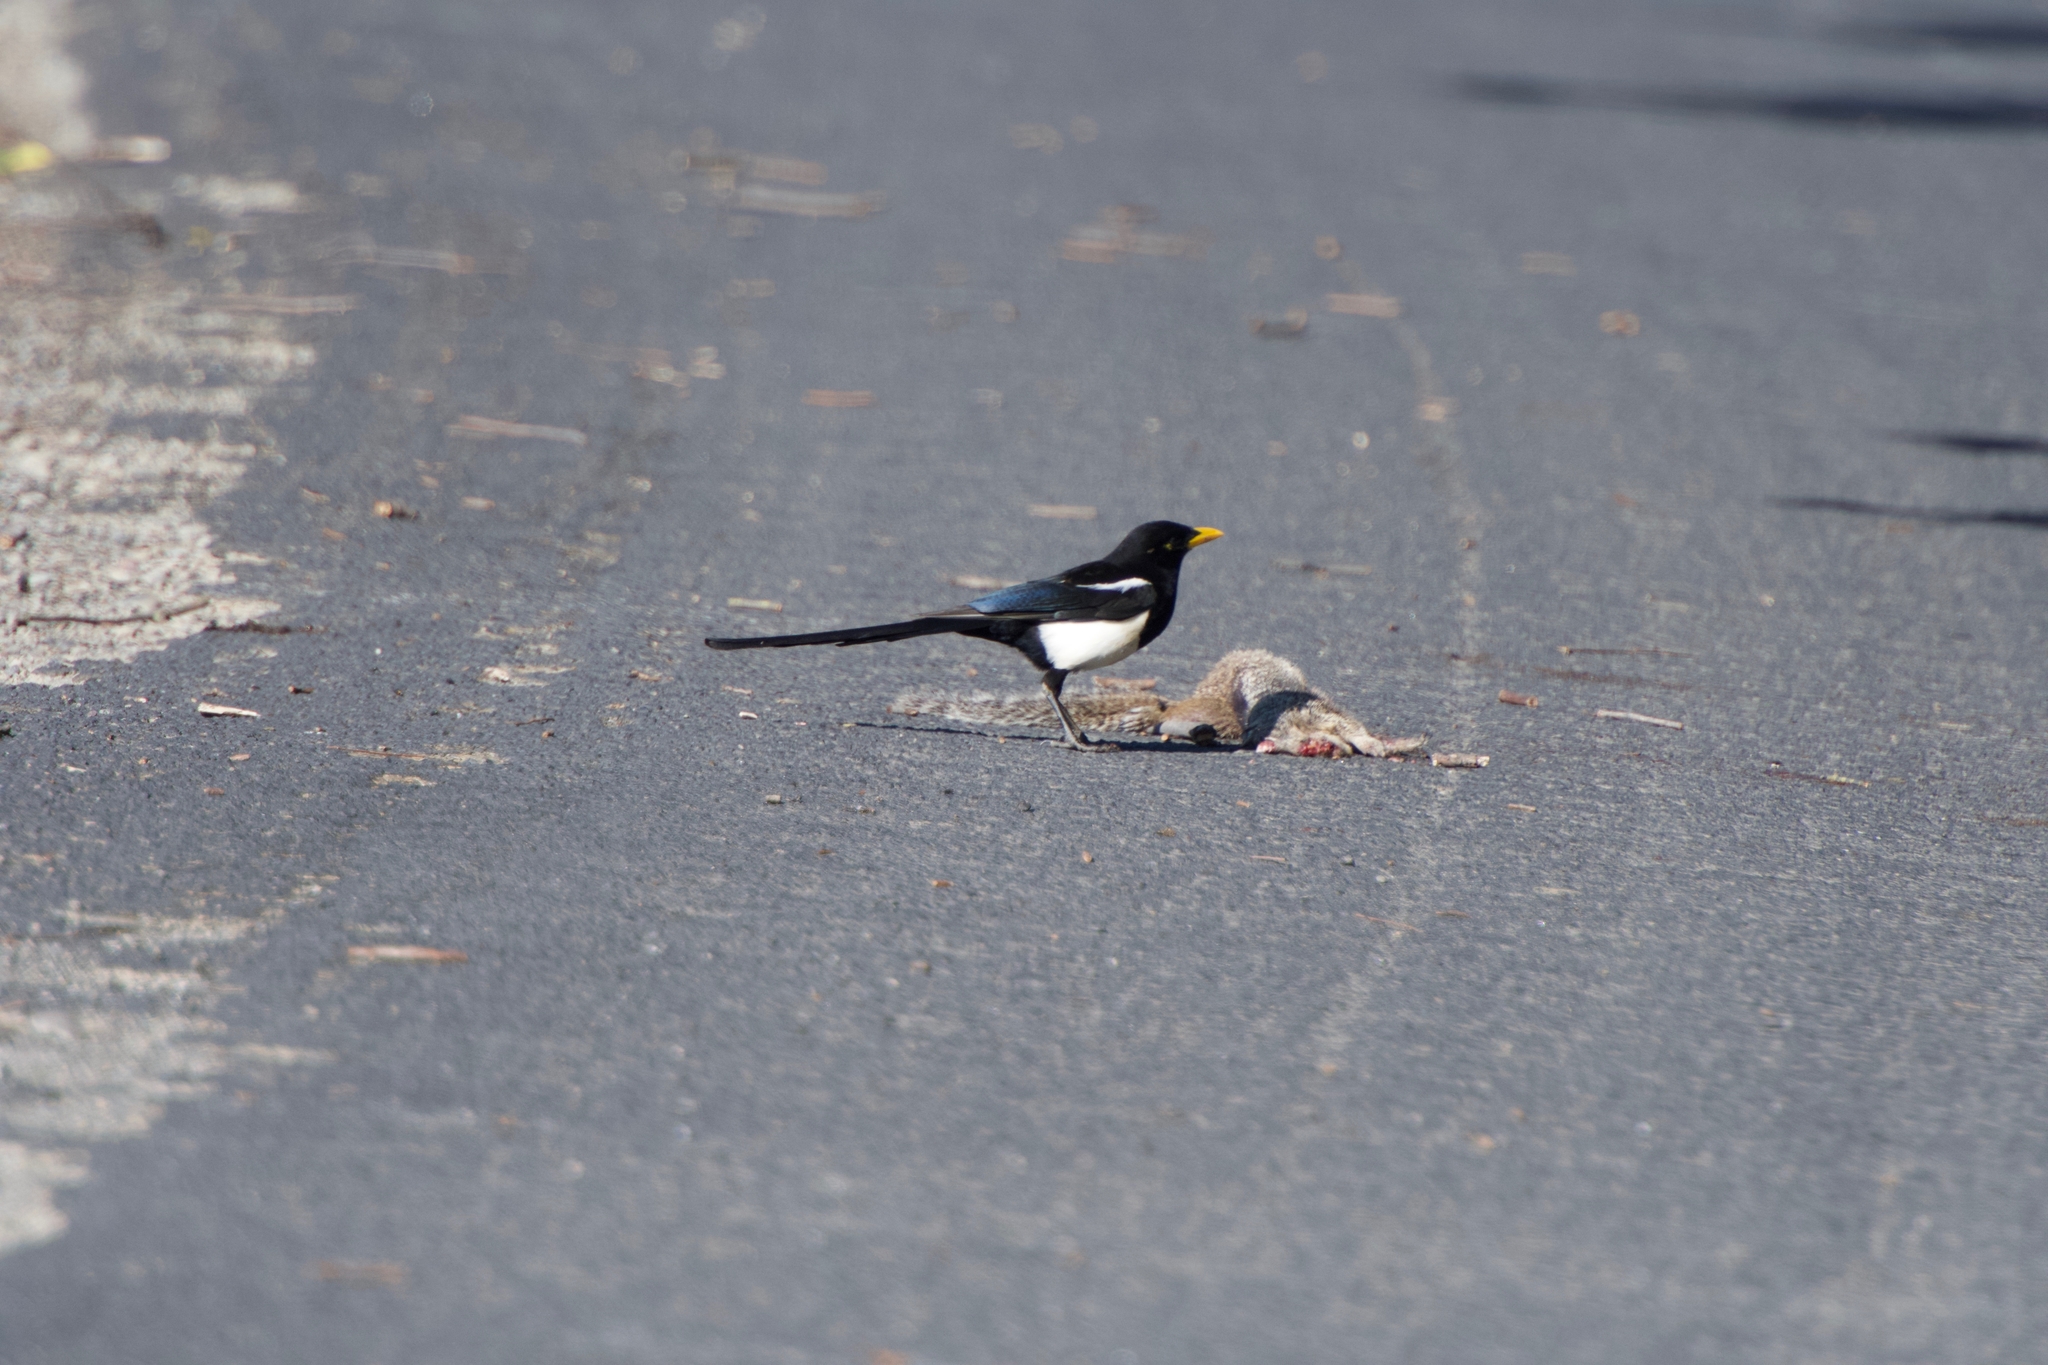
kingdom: Animalia
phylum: Chordata
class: Aves
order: Passeriformes
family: Corvidae
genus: Pica
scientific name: Pica nuttalli
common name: Yellow-billed magpie
